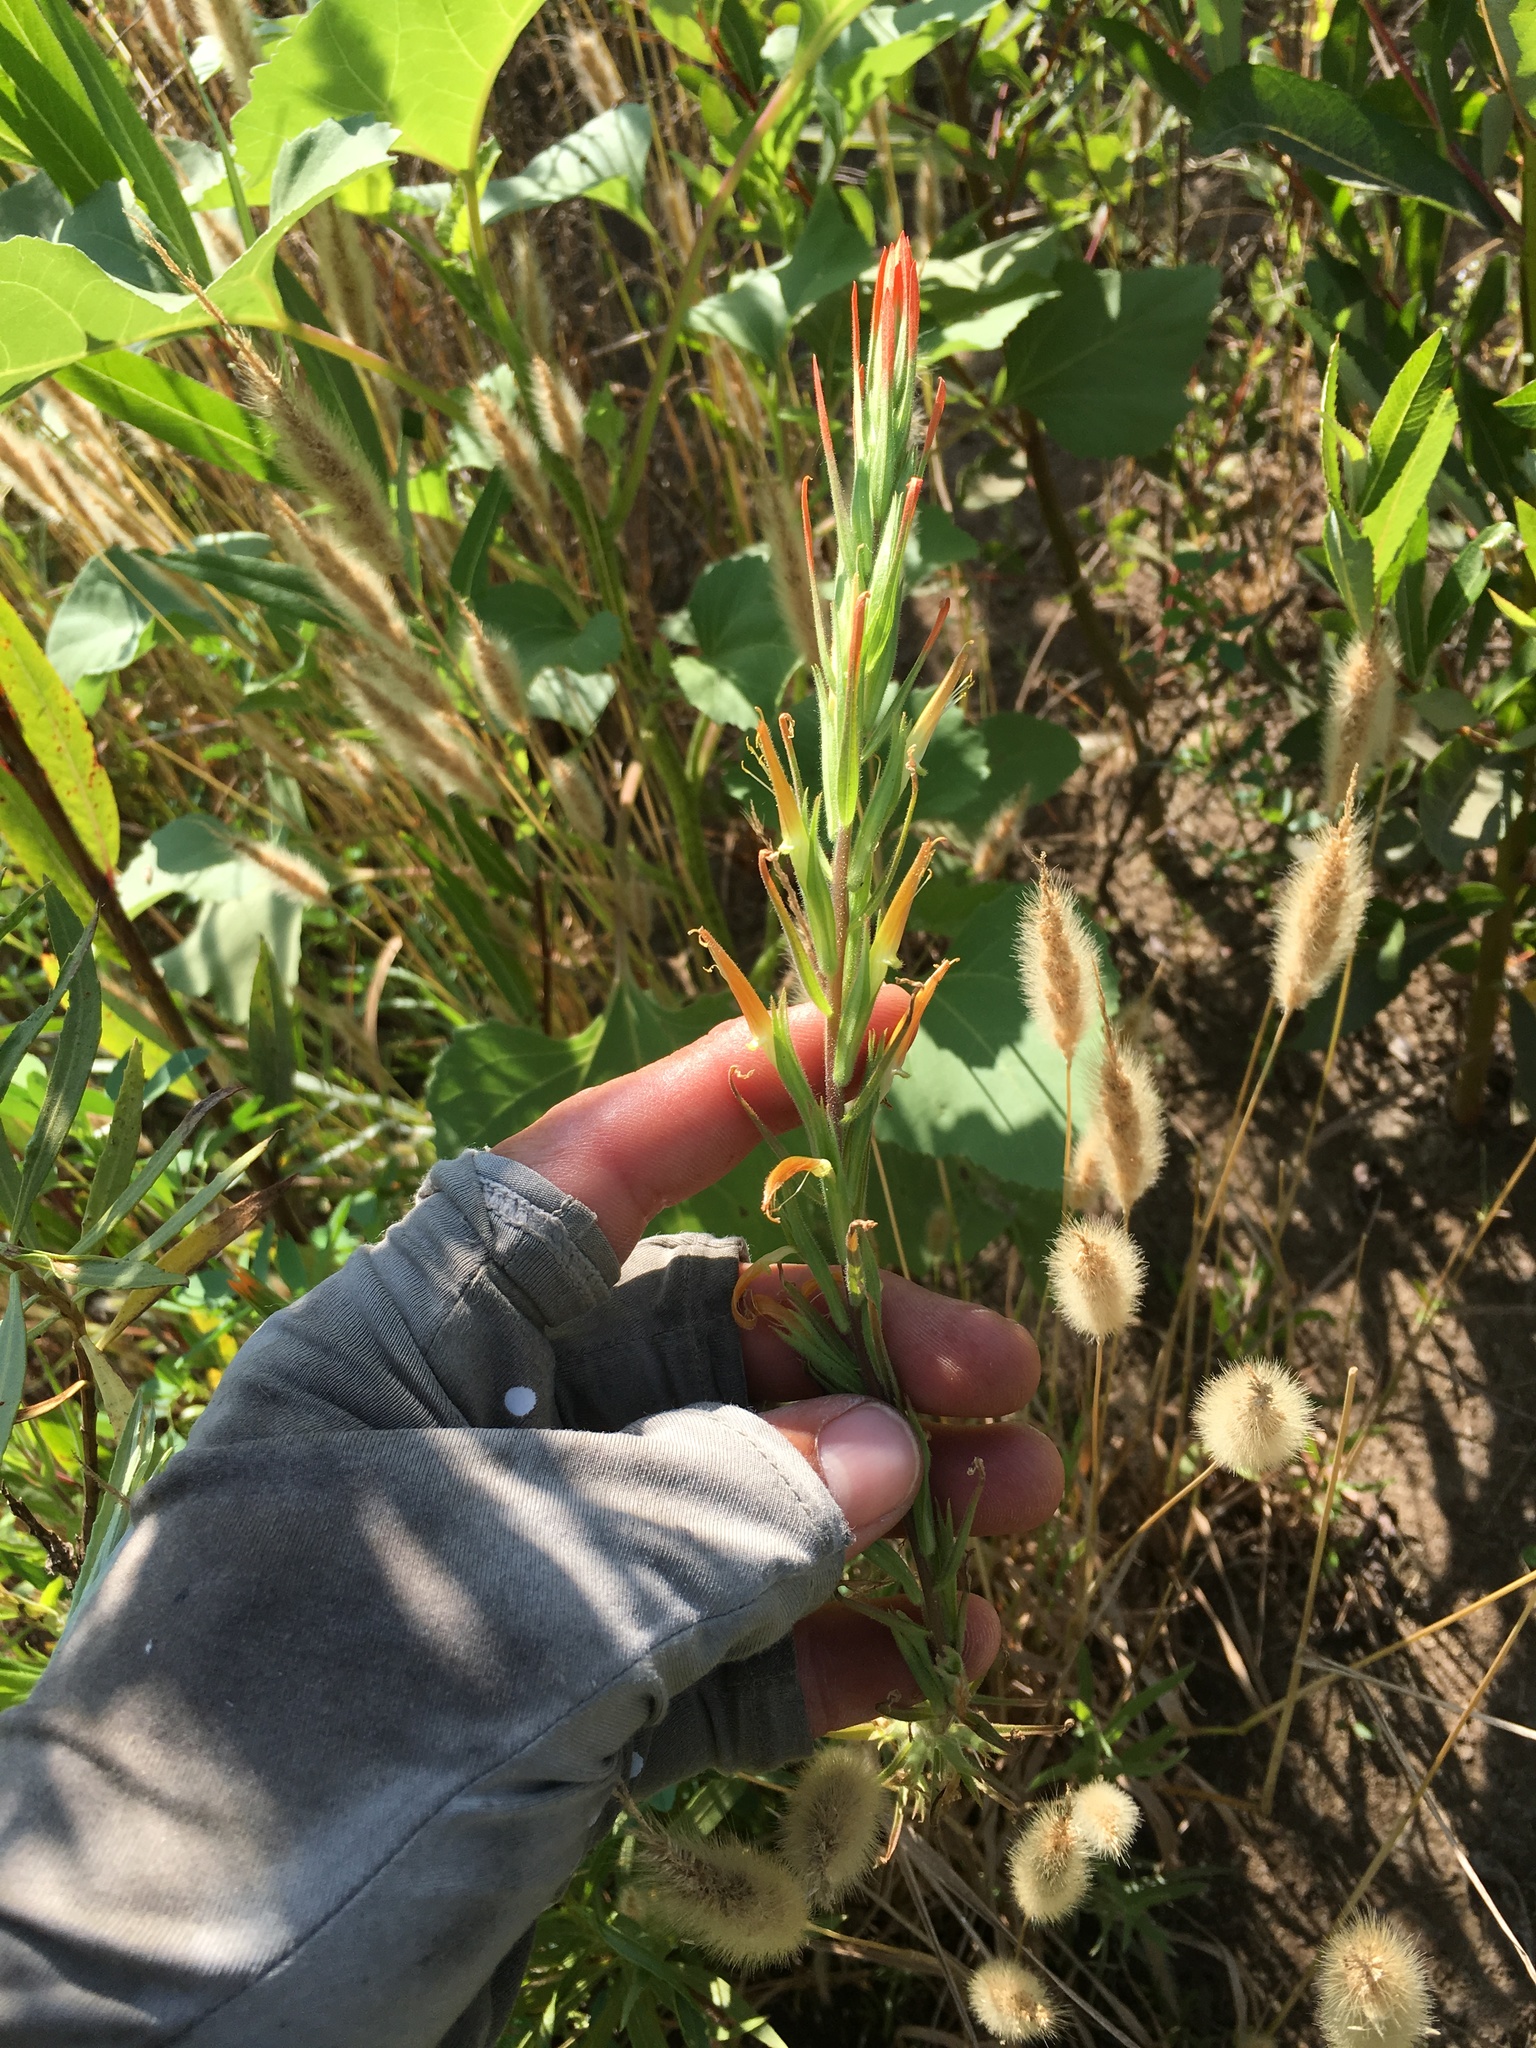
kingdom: Plantae
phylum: Tracheophyta
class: Liliopsida
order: Poales
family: Poaceae
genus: Polypogon
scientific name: Polypogon monspeliensis
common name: Annual rabbitsfoot grass
